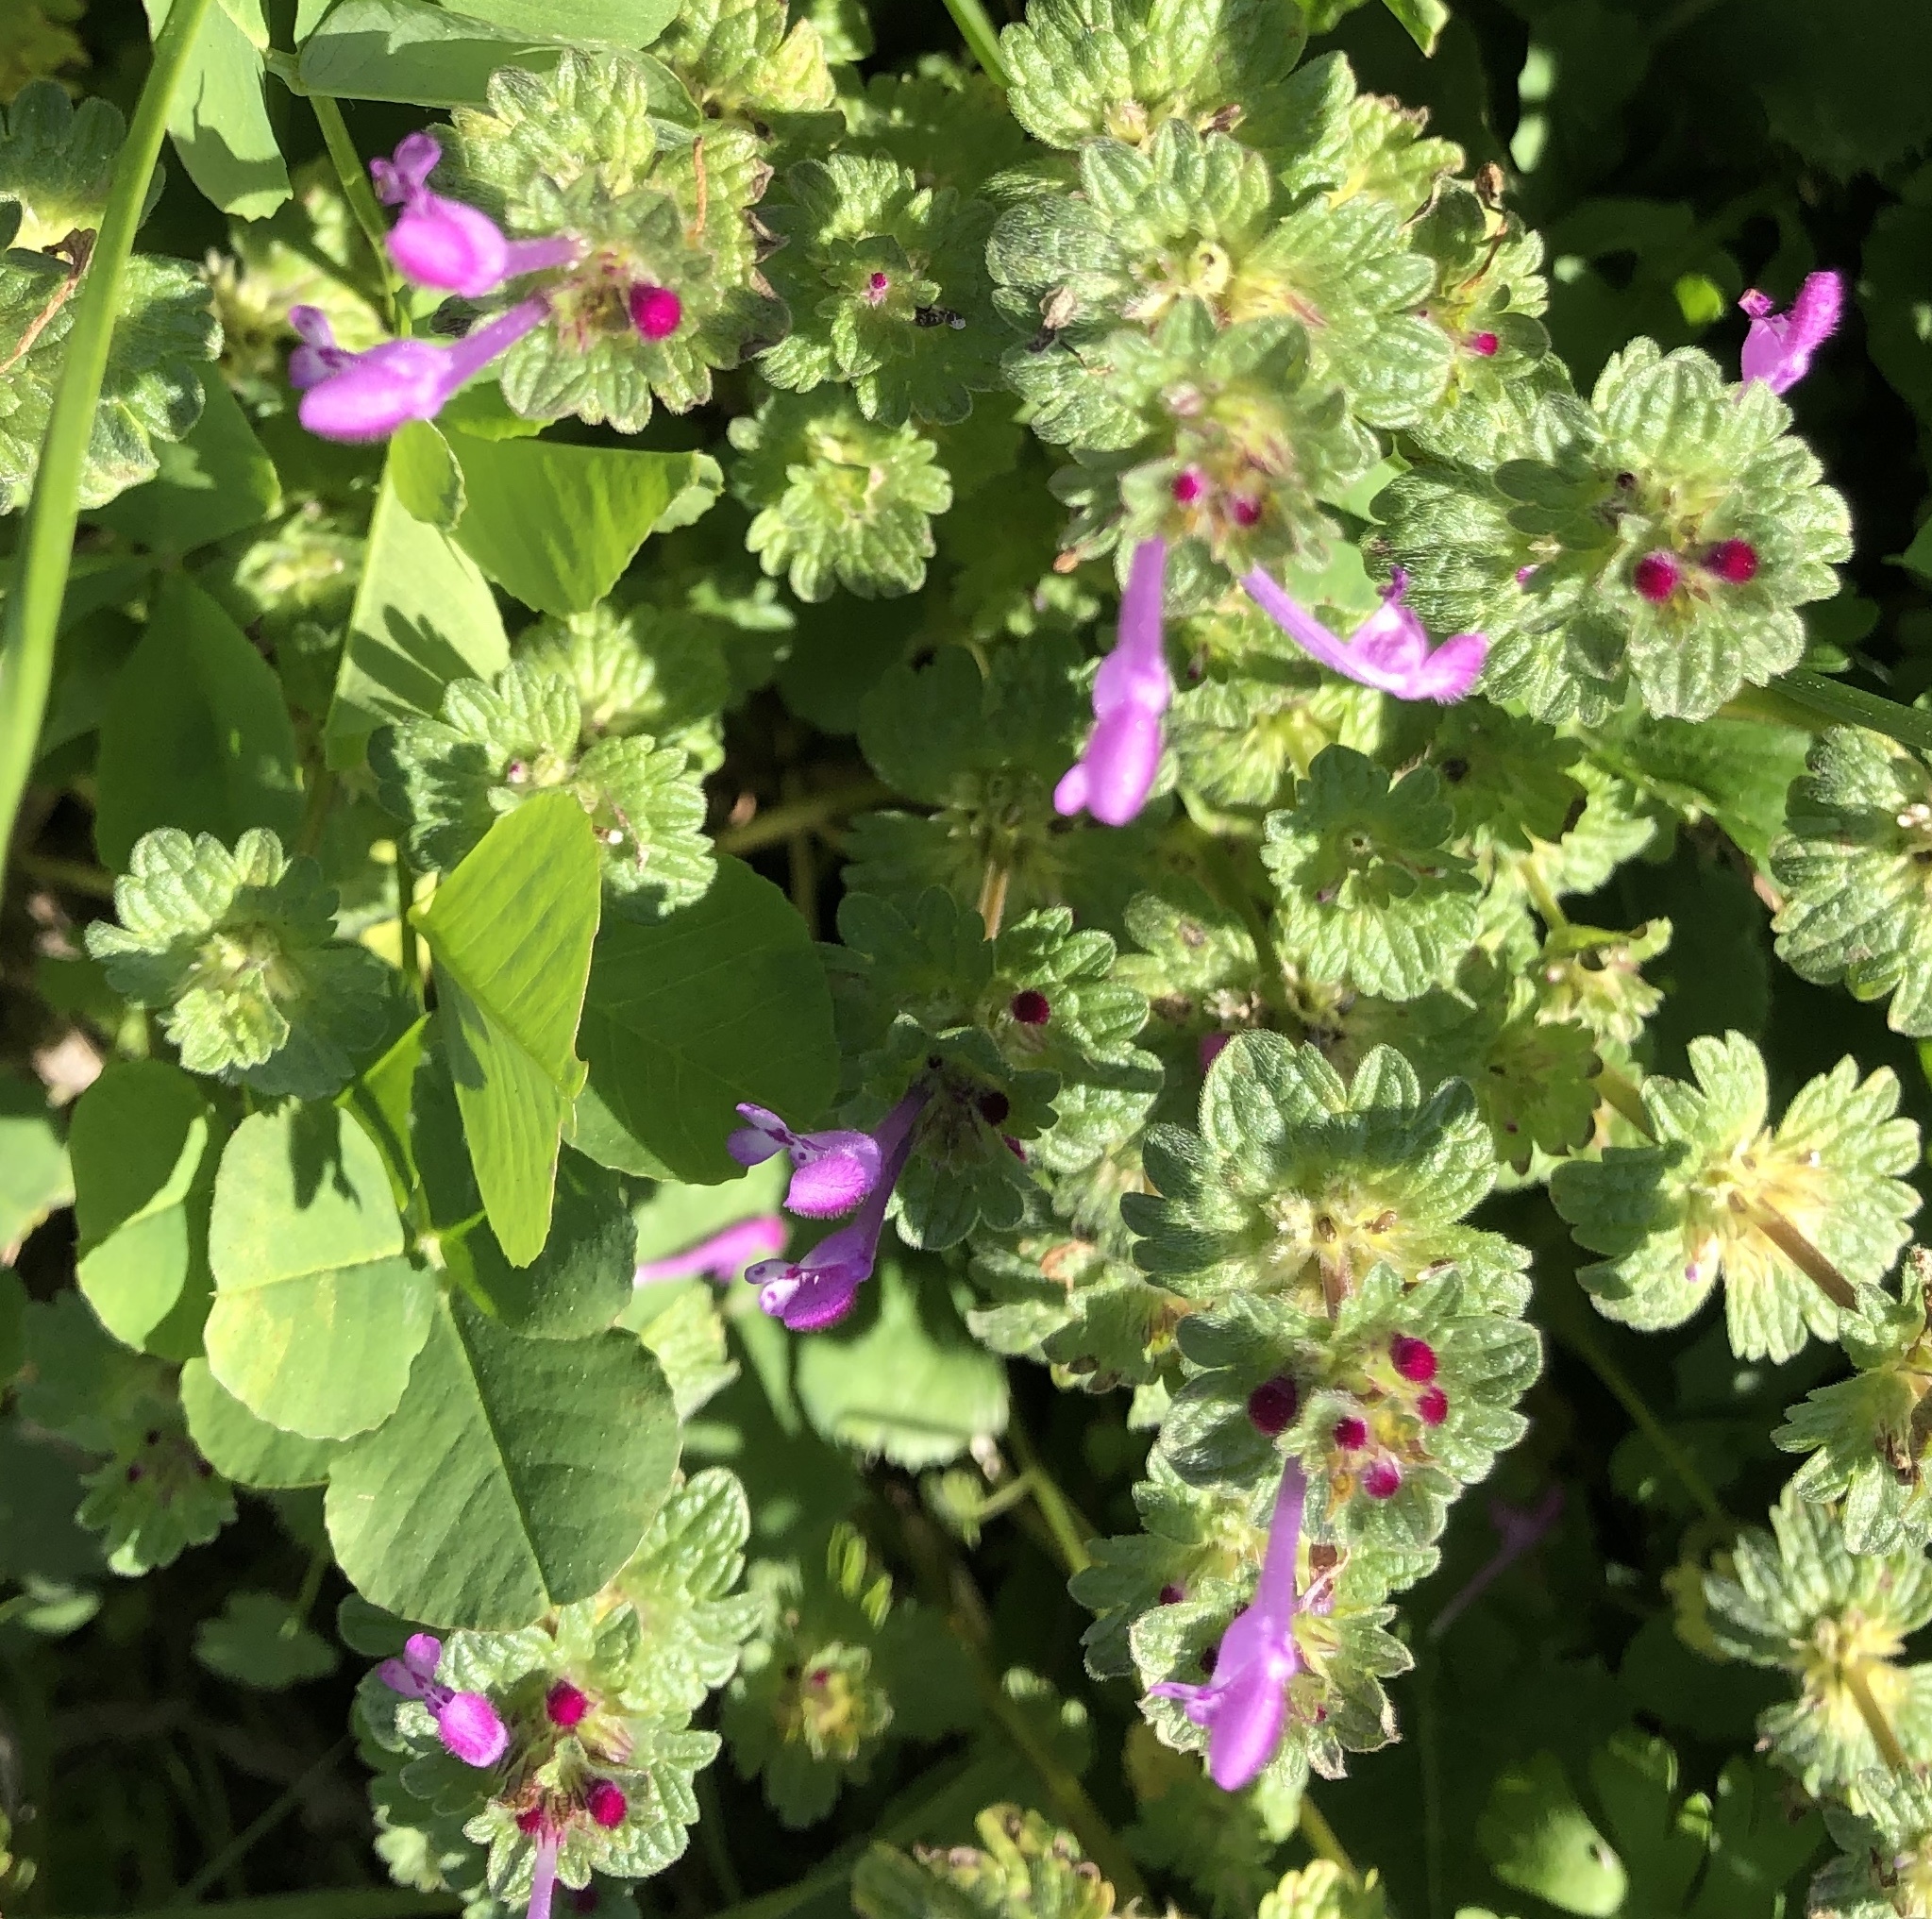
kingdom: Plantae
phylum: Tracheophyta
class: Magnoliopsida
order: Lamiales
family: Lamiaceae
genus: Lamium
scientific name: Lamium amplexicaule
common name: Henbit dead-nettle
